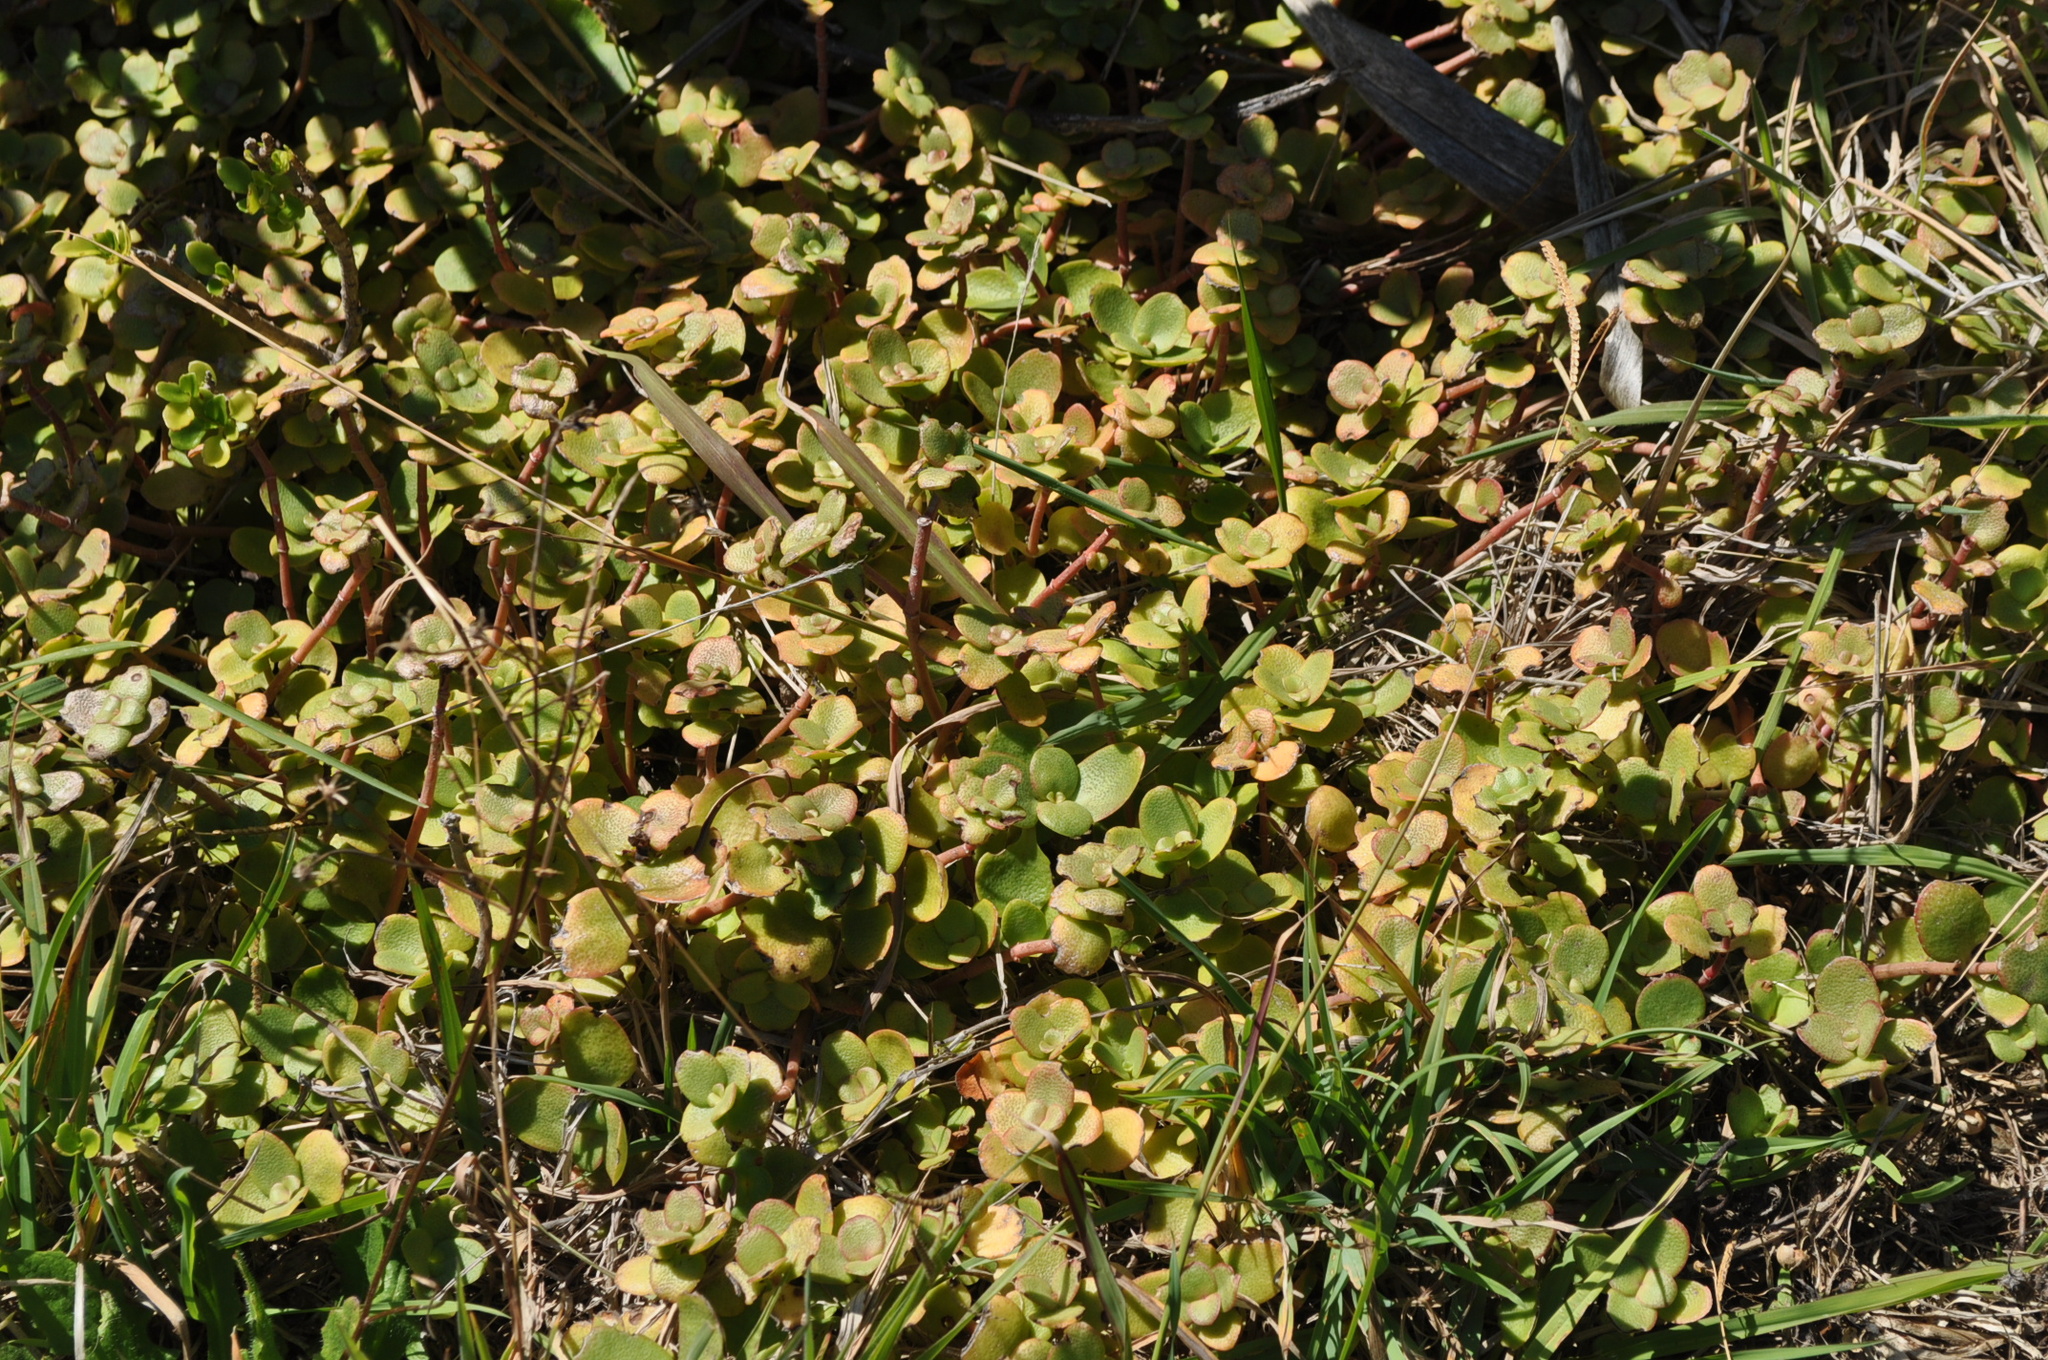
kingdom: Plantae
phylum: Tracheophyta
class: Magnoliopsida
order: Saxifragales
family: Crassulaceae
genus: Crassula
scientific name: Crassula multicava
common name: Cape province pygmyweed
